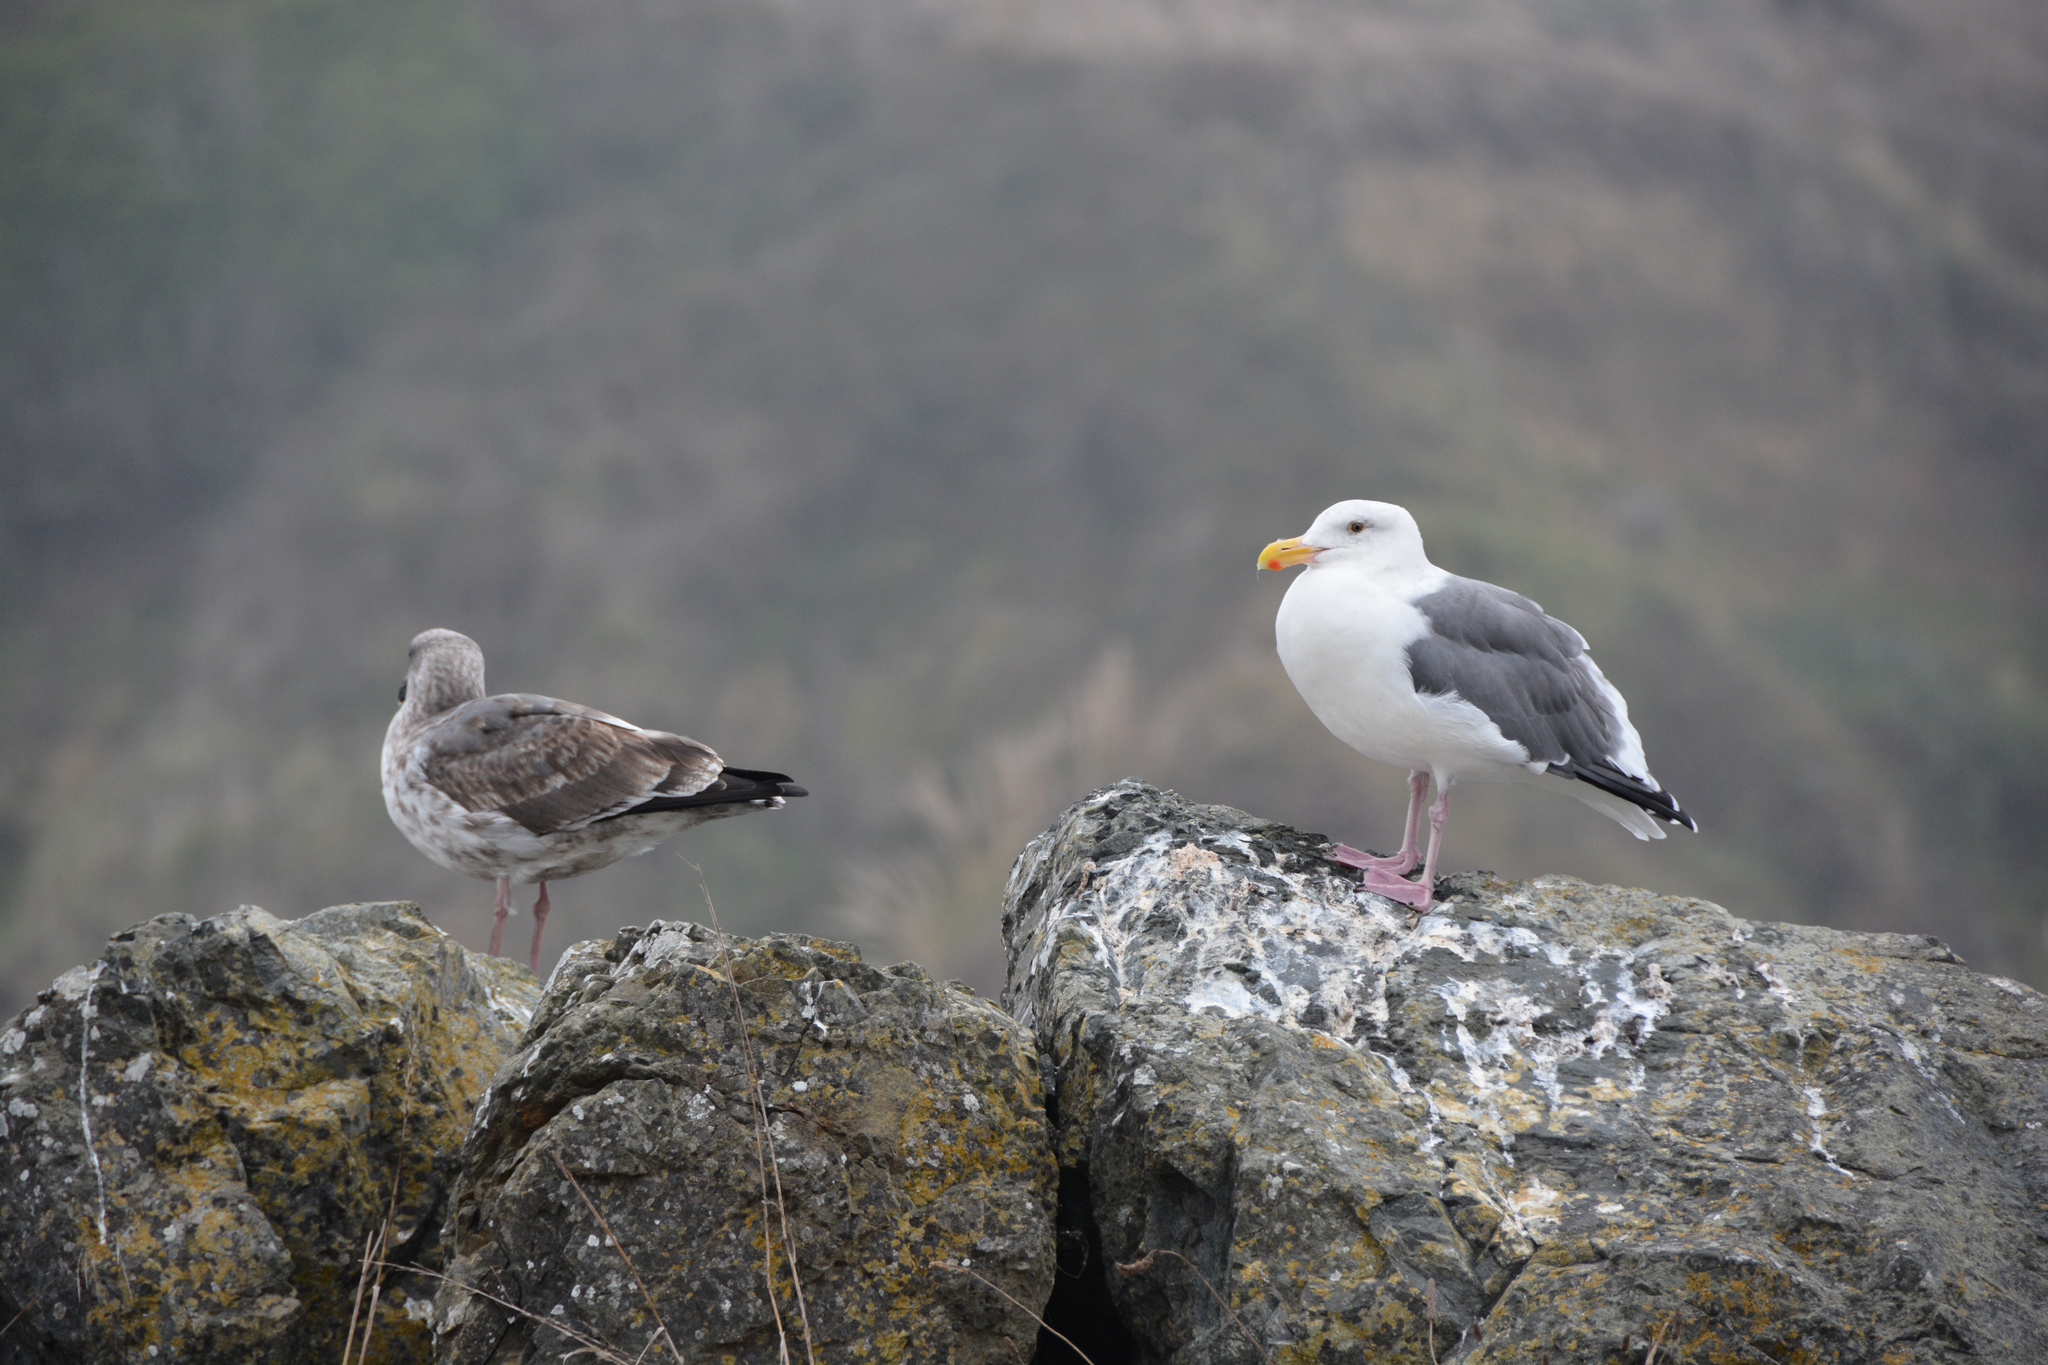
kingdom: Animalia
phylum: Chordata
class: Aves
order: Charadriiformes
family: Laridae
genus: Larus
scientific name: Larus occidentalis
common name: Western gull
